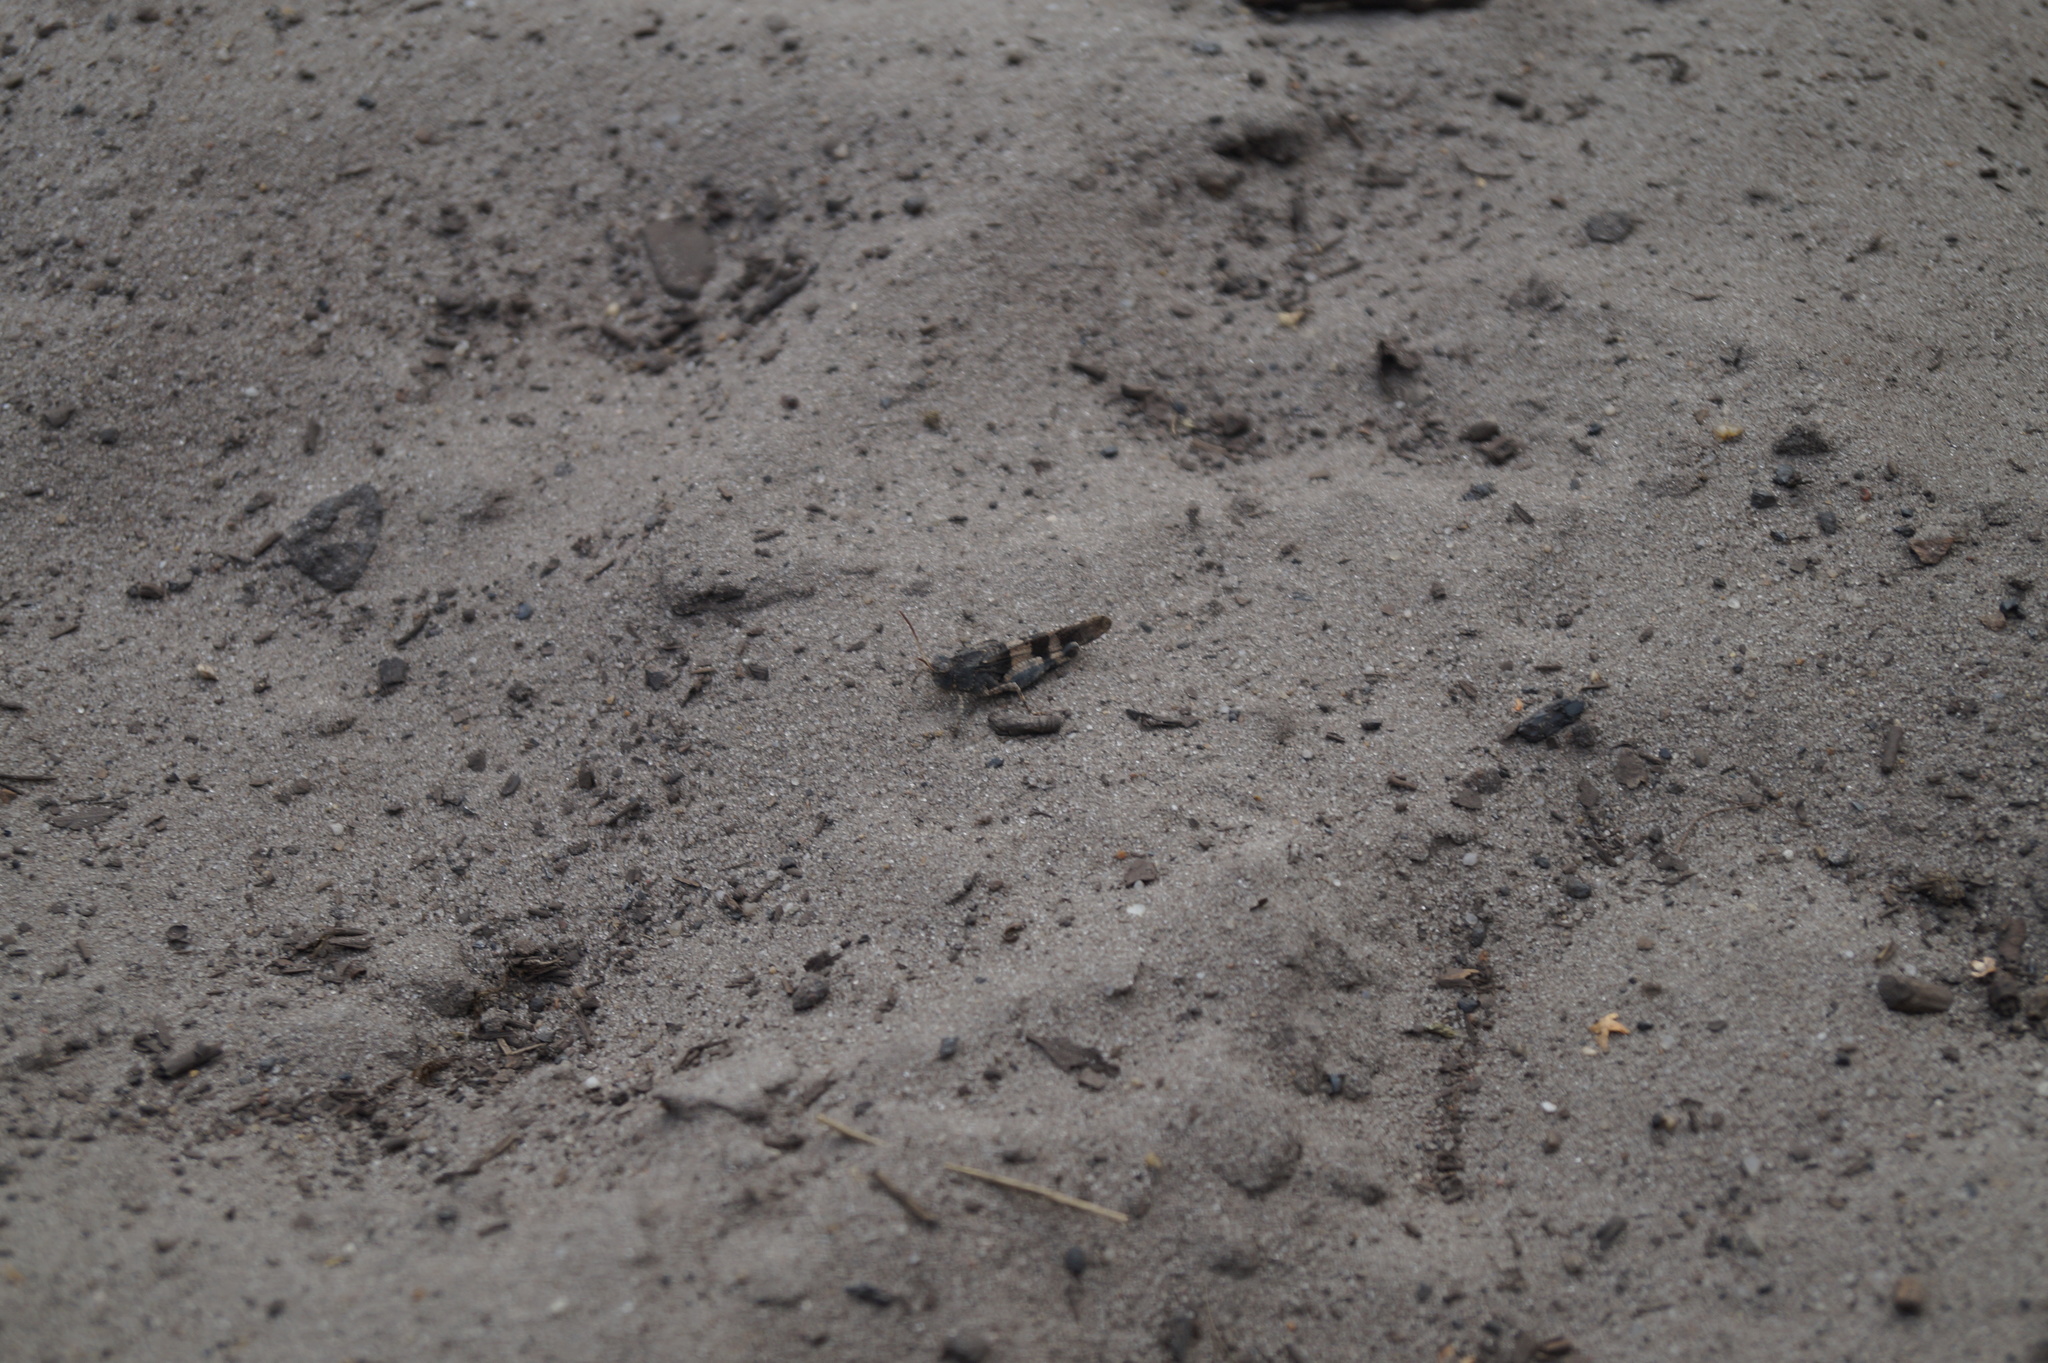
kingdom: Animalia
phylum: Arthropoda
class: Insecta
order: Orthoptera
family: Acrididae
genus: Oedipoda
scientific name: Oedipoda caerulescens
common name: Blue-winged grasshopper
